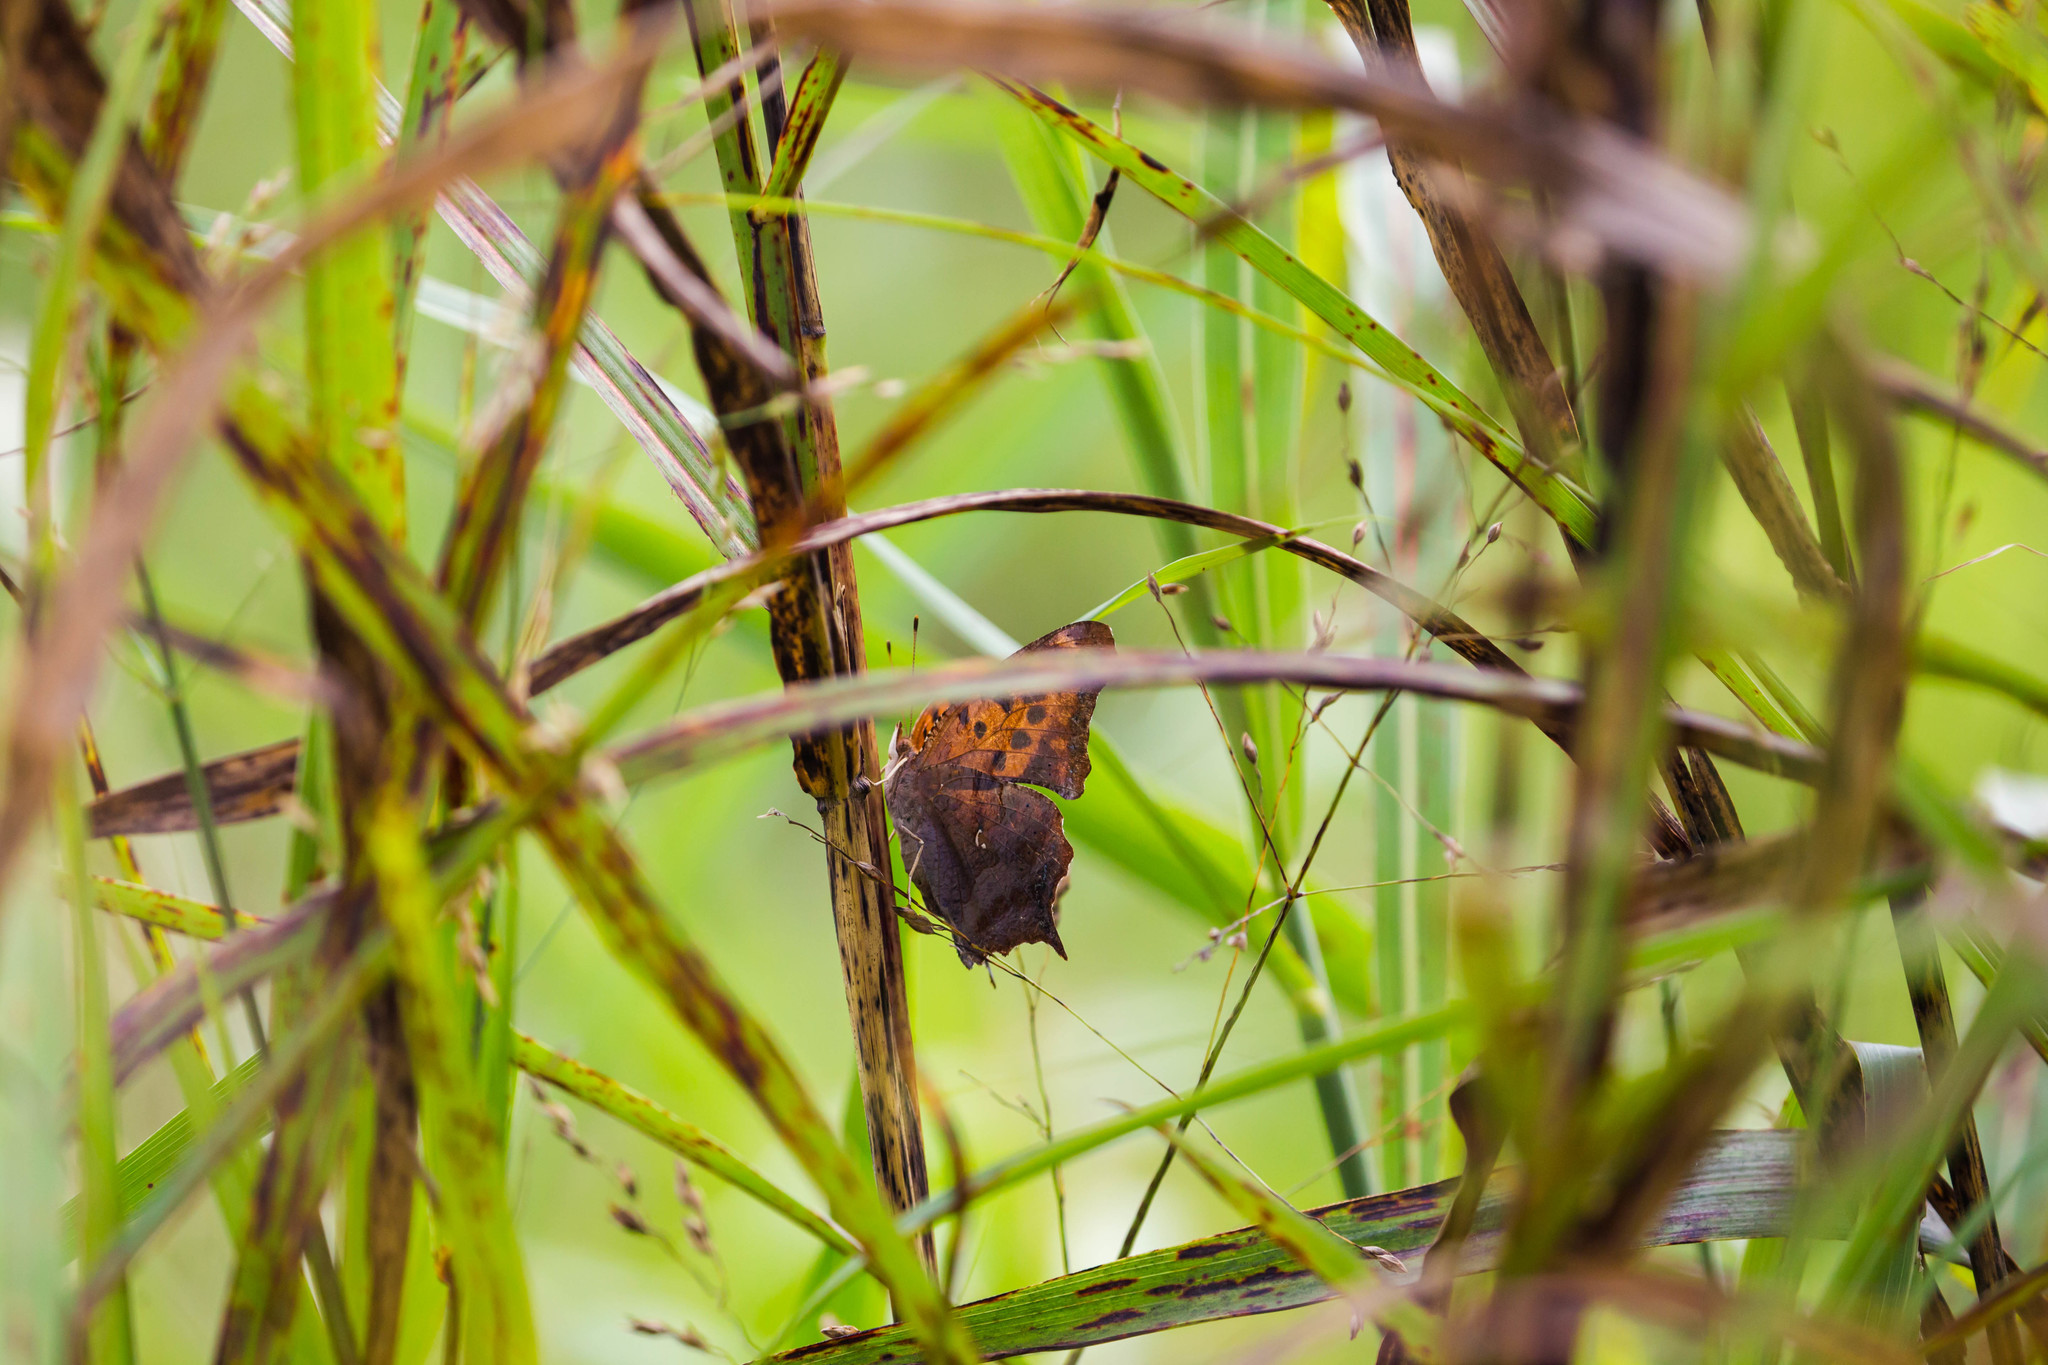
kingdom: Animalia
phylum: Arthropoda
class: Insecta
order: Lepidoptera
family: Nymphalidae
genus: Polygonia
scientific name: Polygonia interrogationis
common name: Question mark
